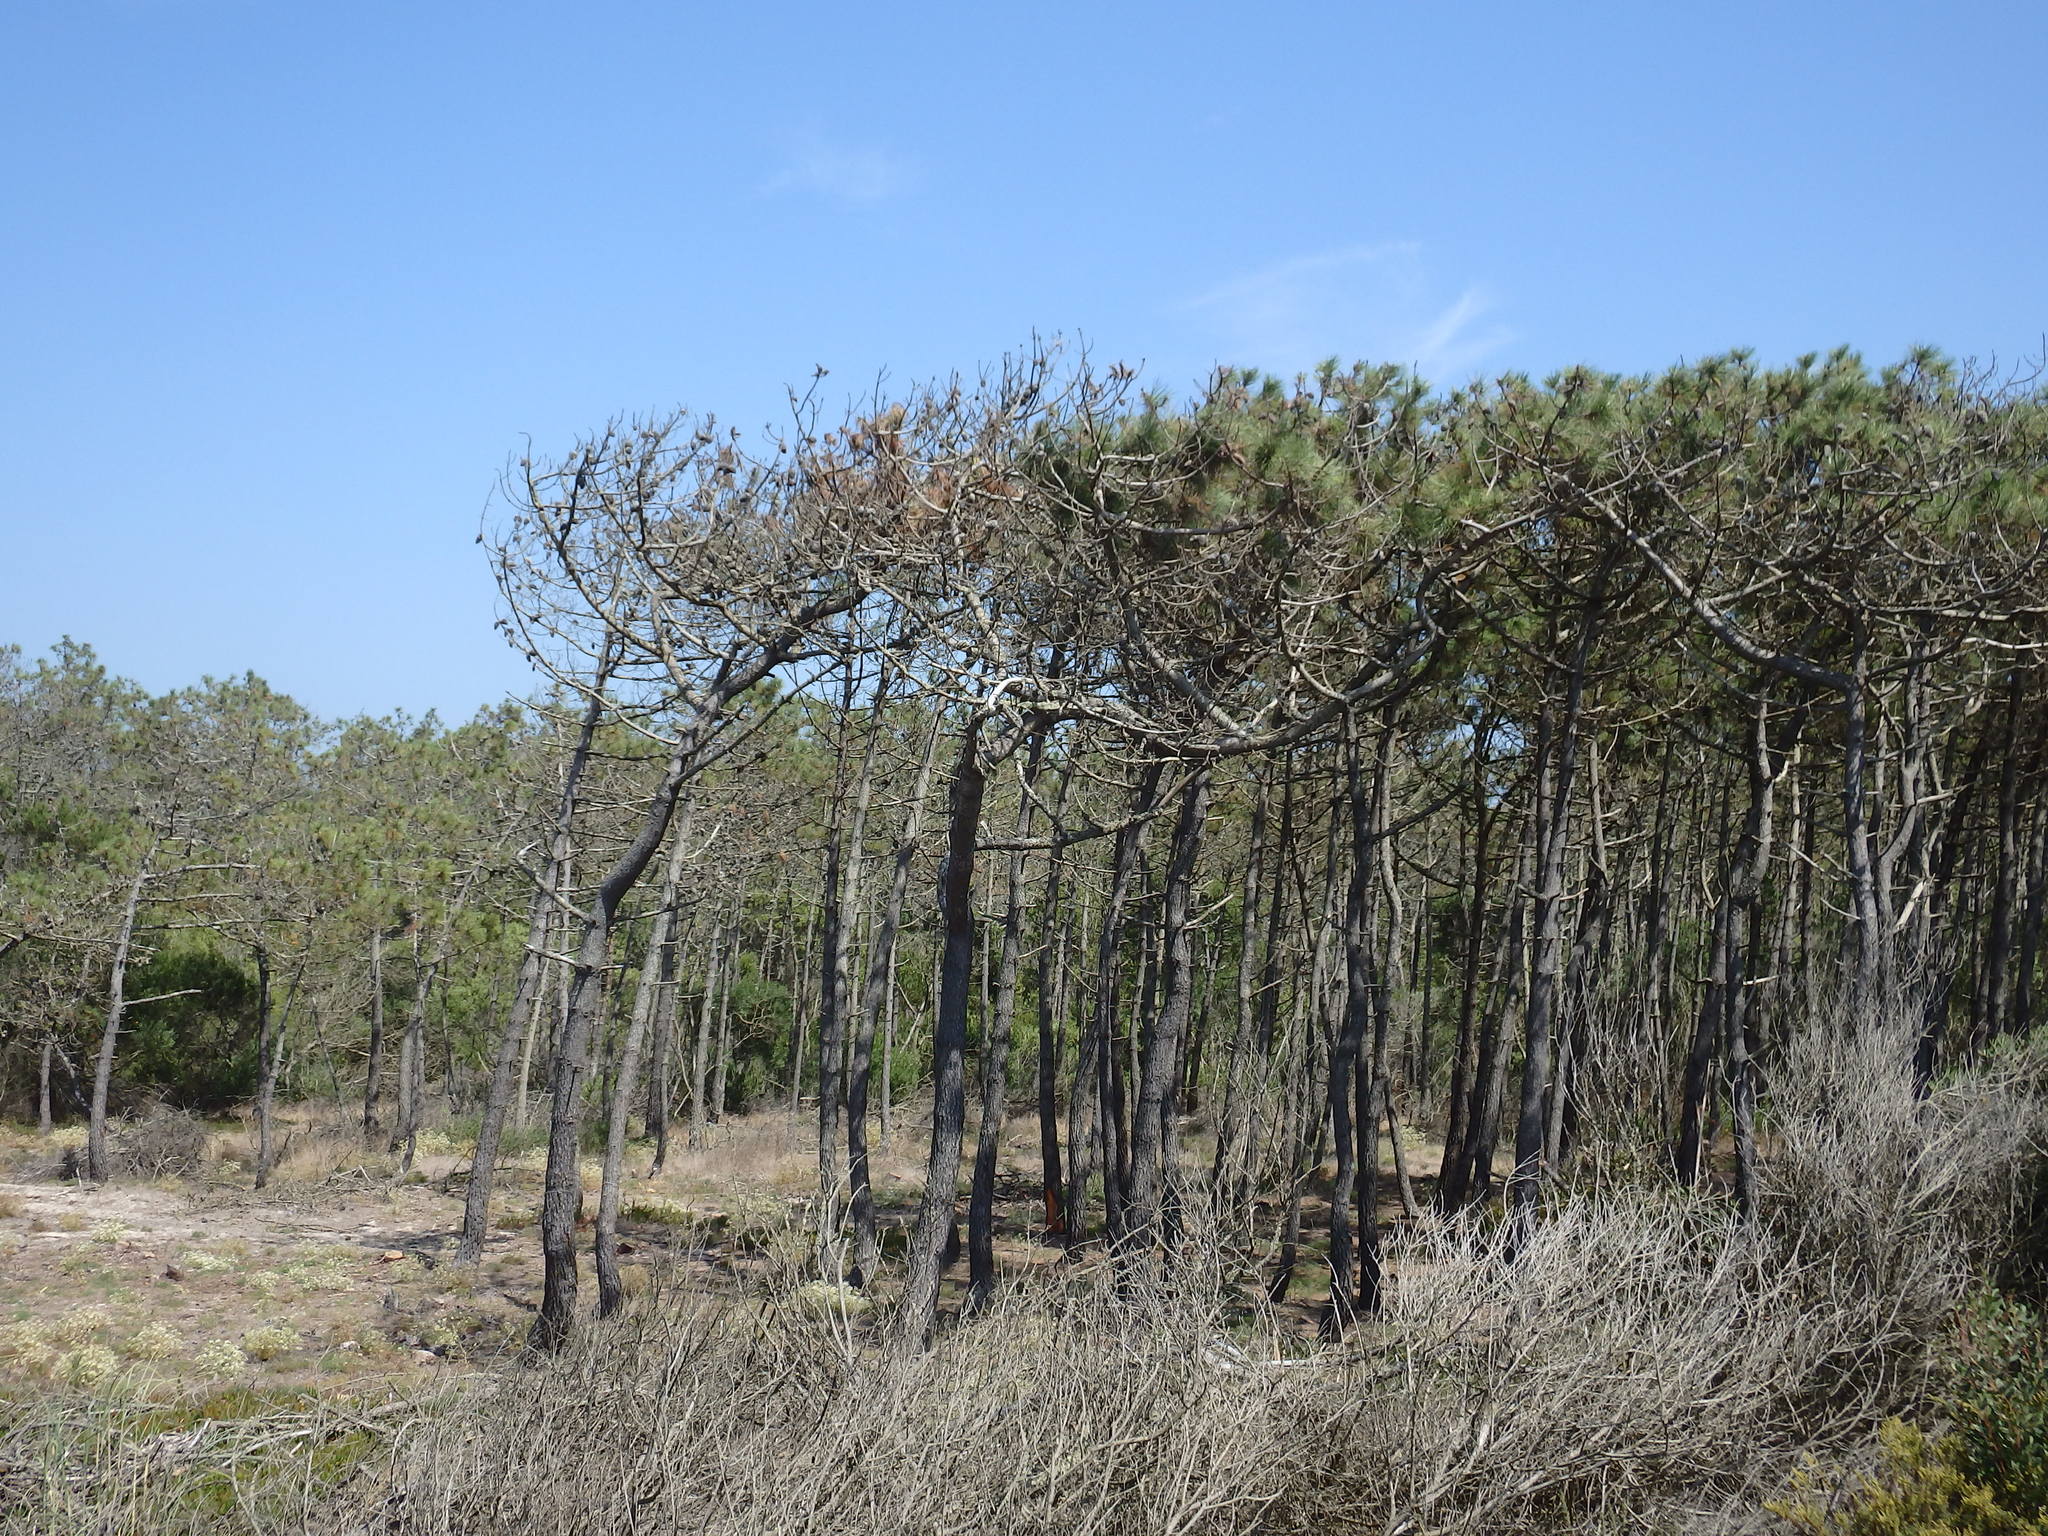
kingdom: Plantae
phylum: Tracheophyta
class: Pinopsida
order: Pinales
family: Pinaceae
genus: Pinus
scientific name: Pinus pinaster
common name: Maritime pine
